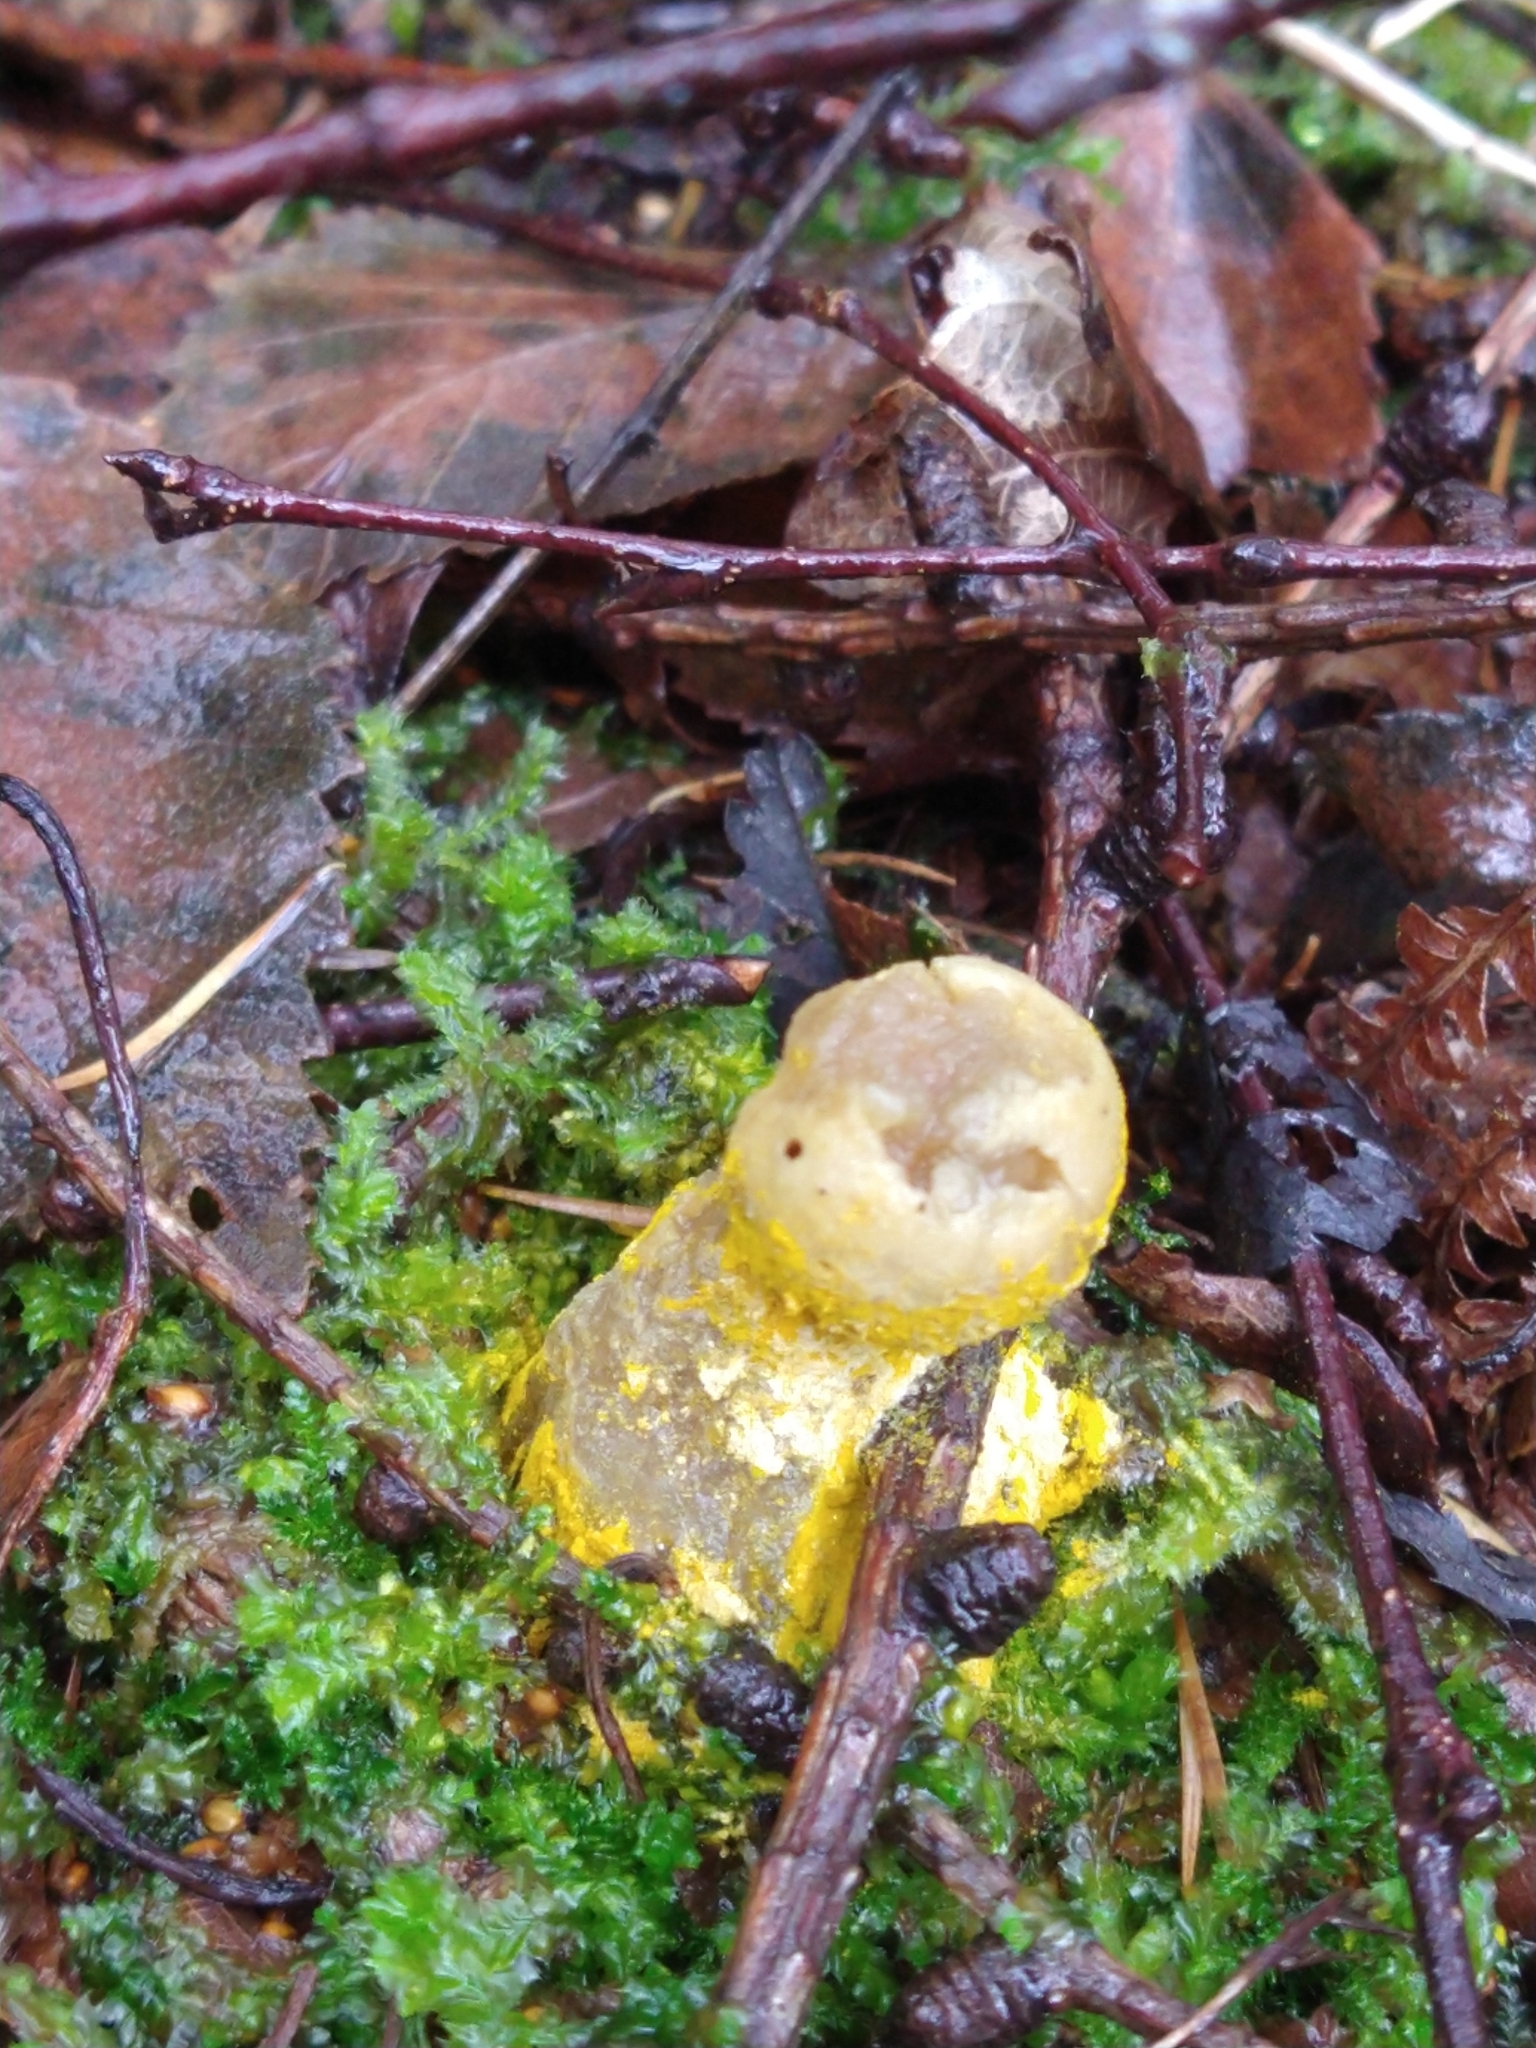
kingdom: Fungi
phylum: Ascomycota
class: Sordariomycetes
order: Hypocreales
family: Hypocreaceae
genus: Hypomyces
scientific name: Hypomyces
